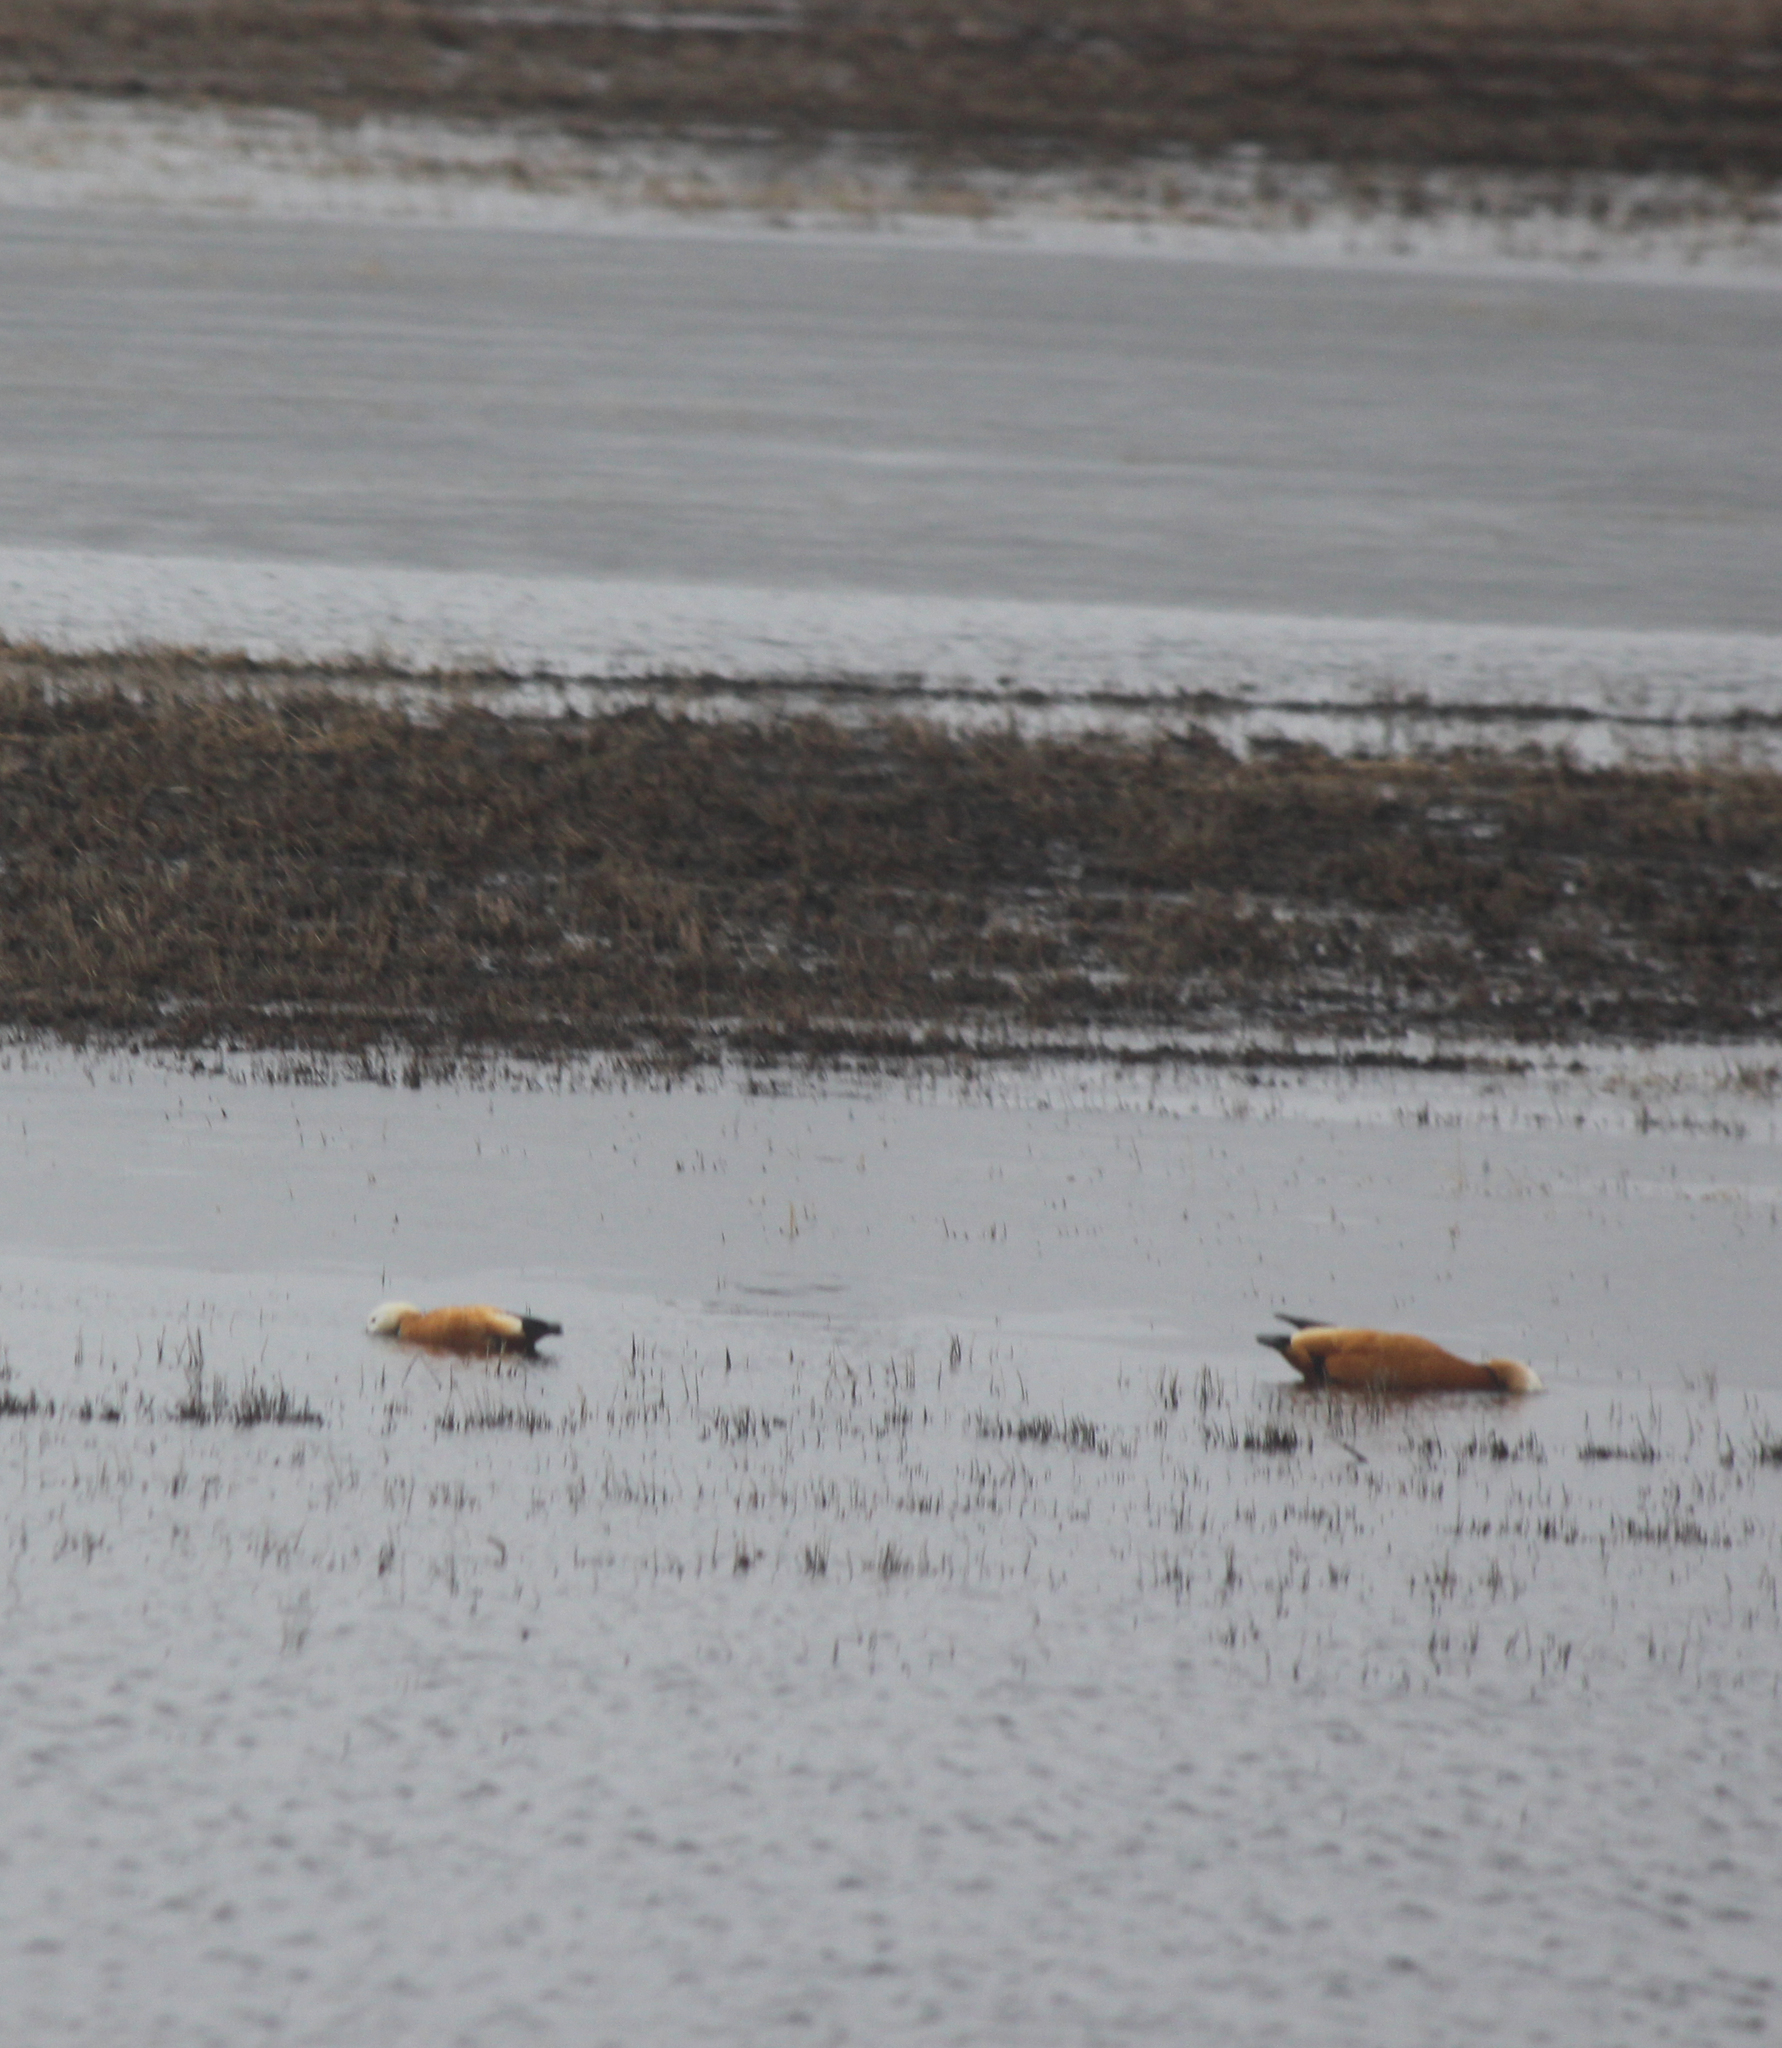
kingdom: Animalia
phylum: Chordata
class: Aves
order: Anseriformes
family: Anatidae
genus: Tadorna
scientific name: Tadorna ferruginea
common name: Ruddy shelduck
